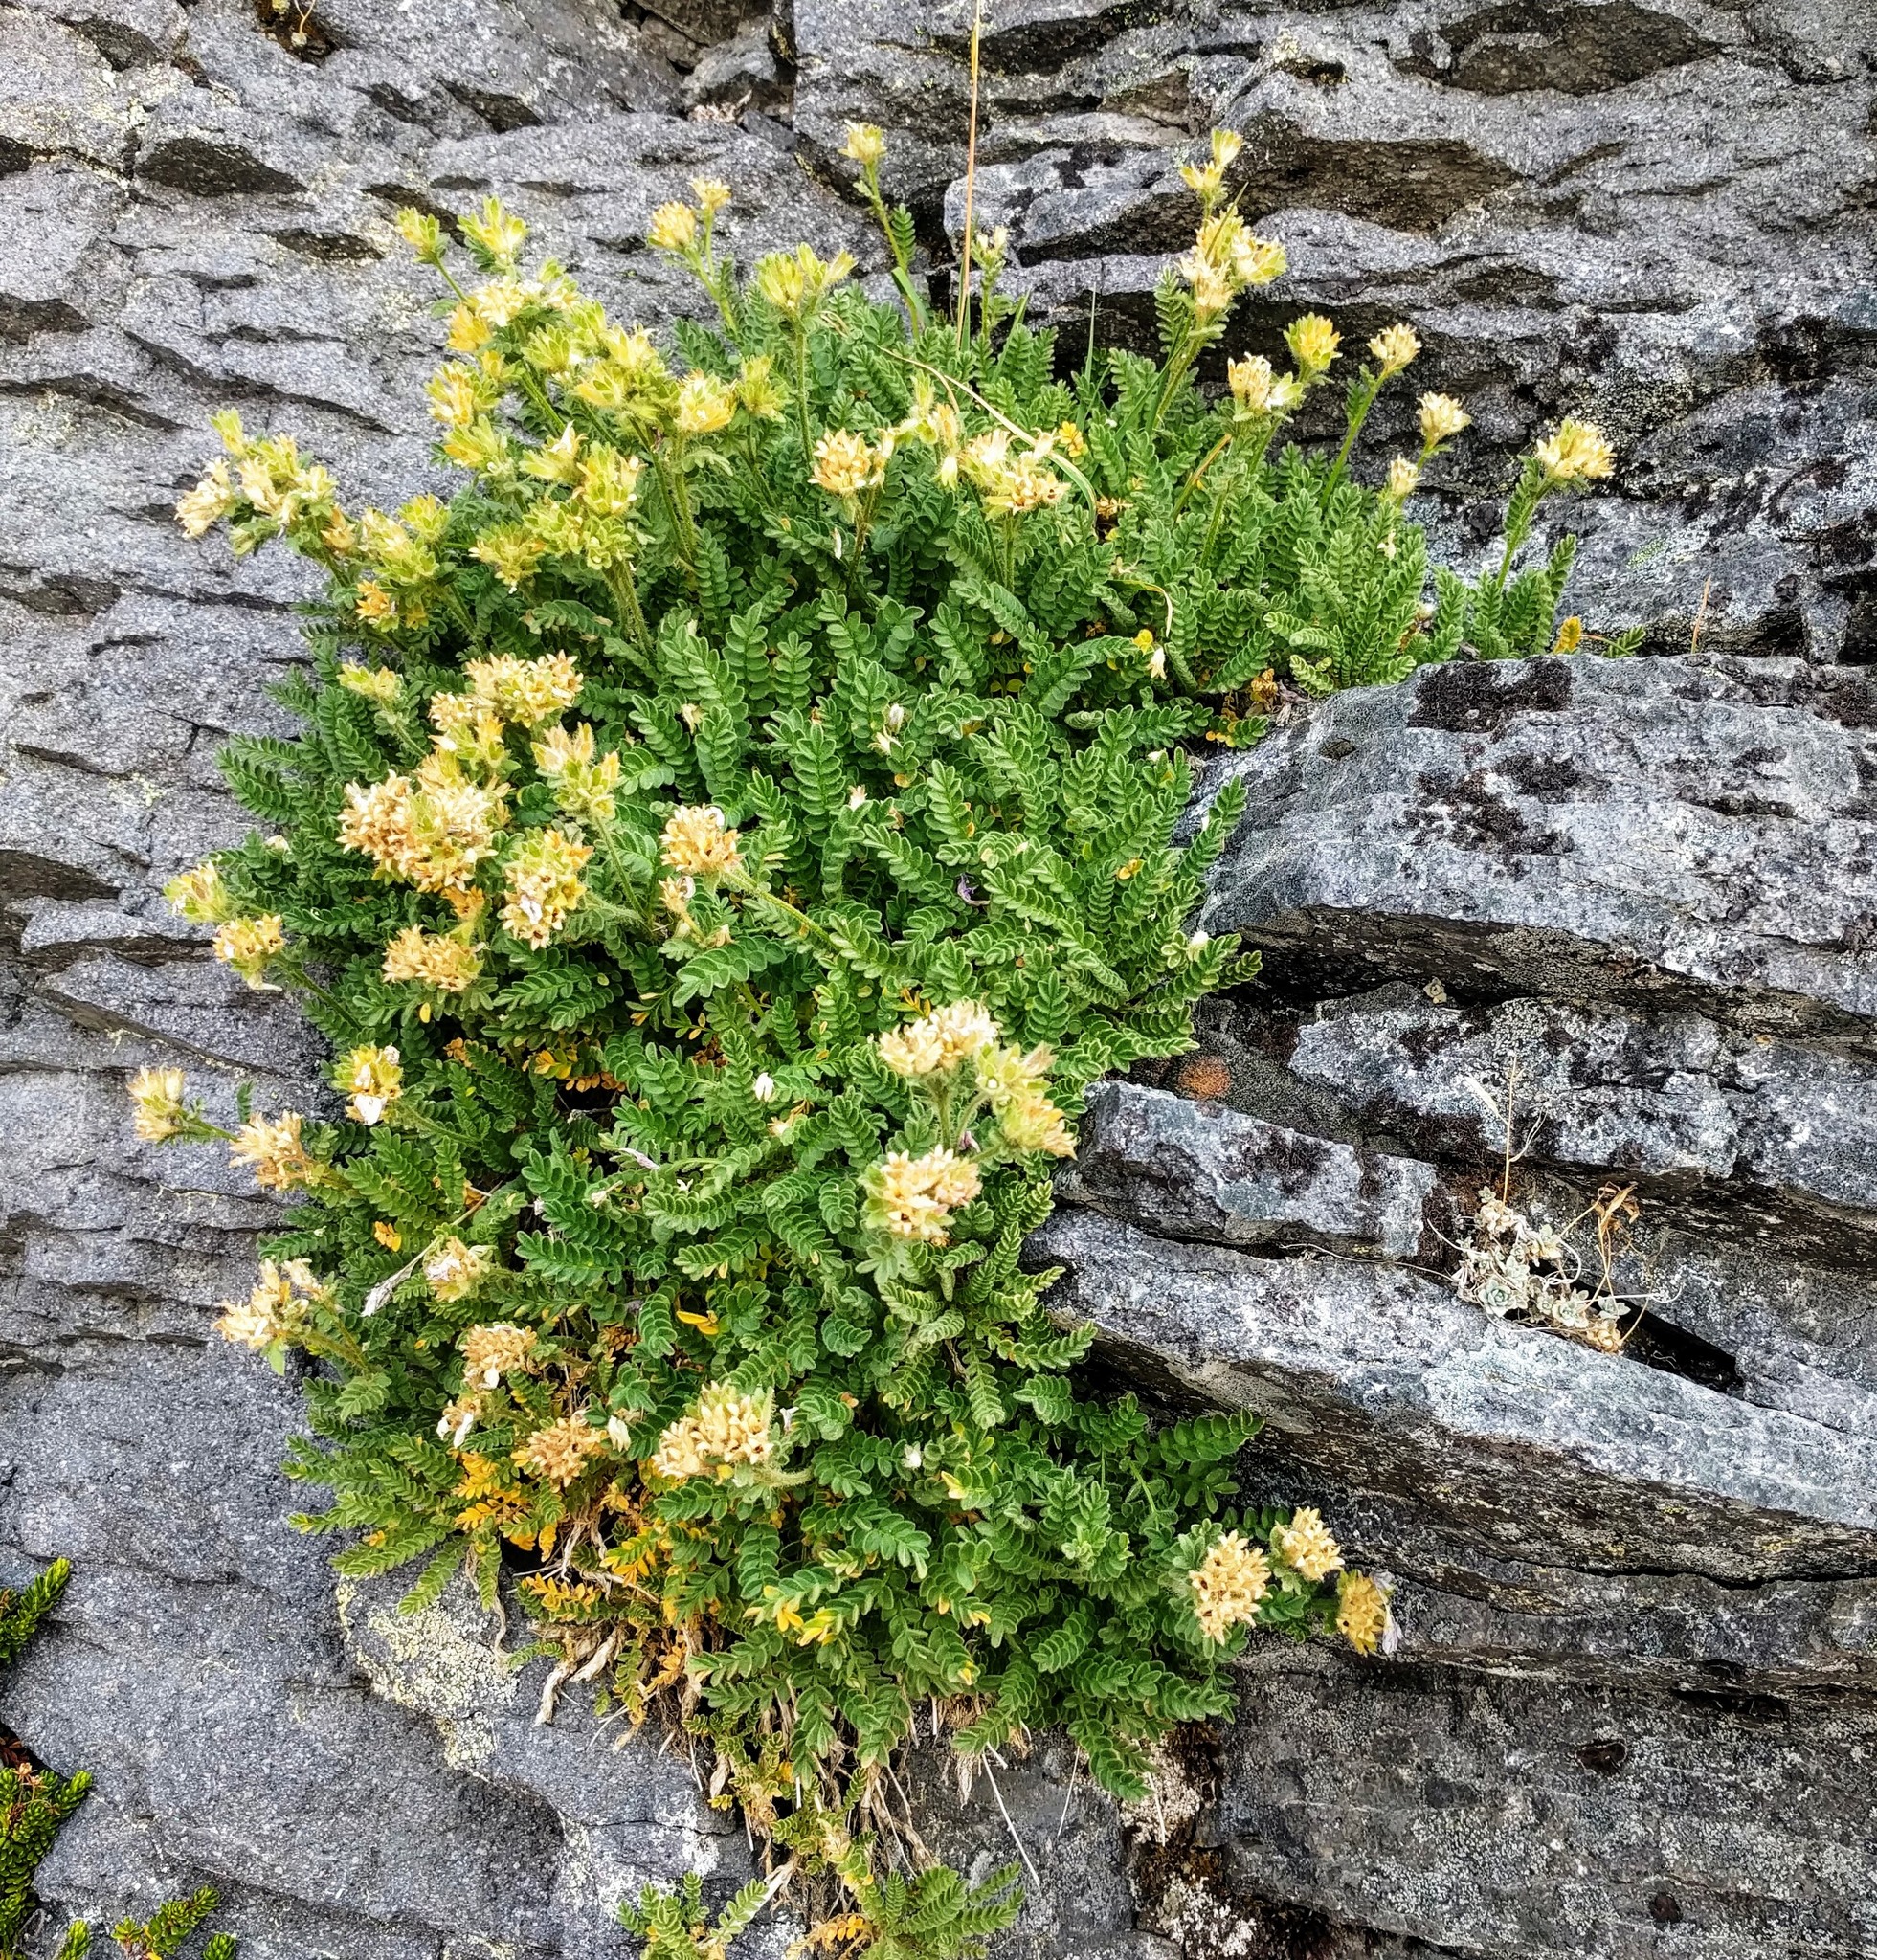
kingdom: Plantae
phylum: Tracheophyta
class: Magnoliopsida
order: Ericales
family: Polemoniaceae
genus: Polemonium
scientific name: Polemonium elegans
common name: Elegant jacob's-ladder
